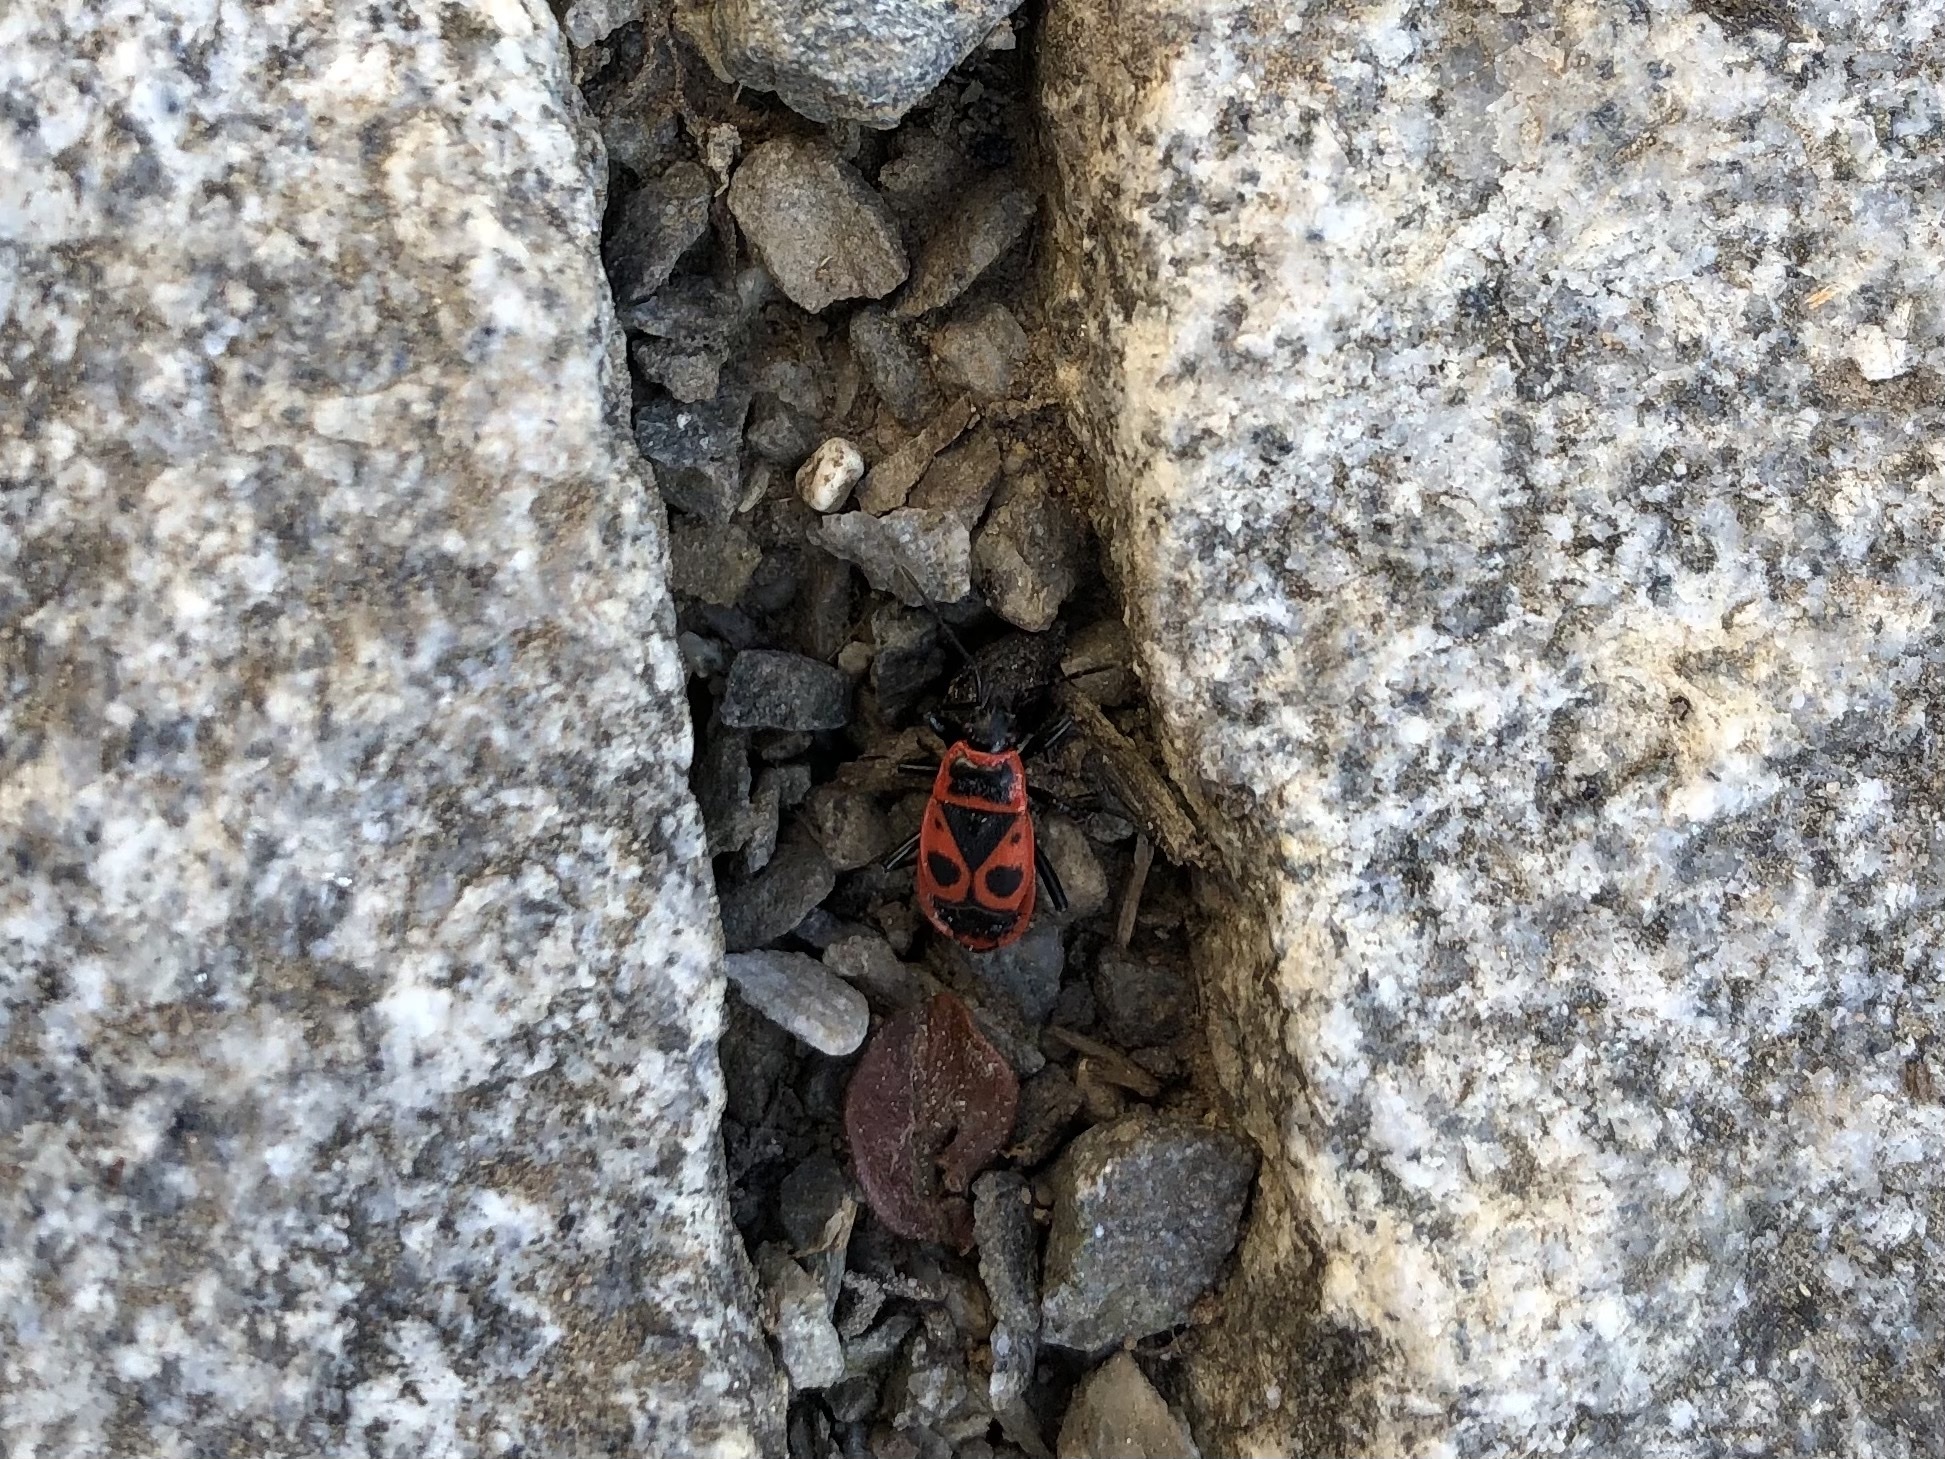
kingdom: Animalia
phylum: Arthropoda
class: Insecta
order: Hemiptera
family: Pyrrhocoridae
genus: Pyrrhocoris
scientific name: Pyrrhocoris apterus
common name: Firebug
